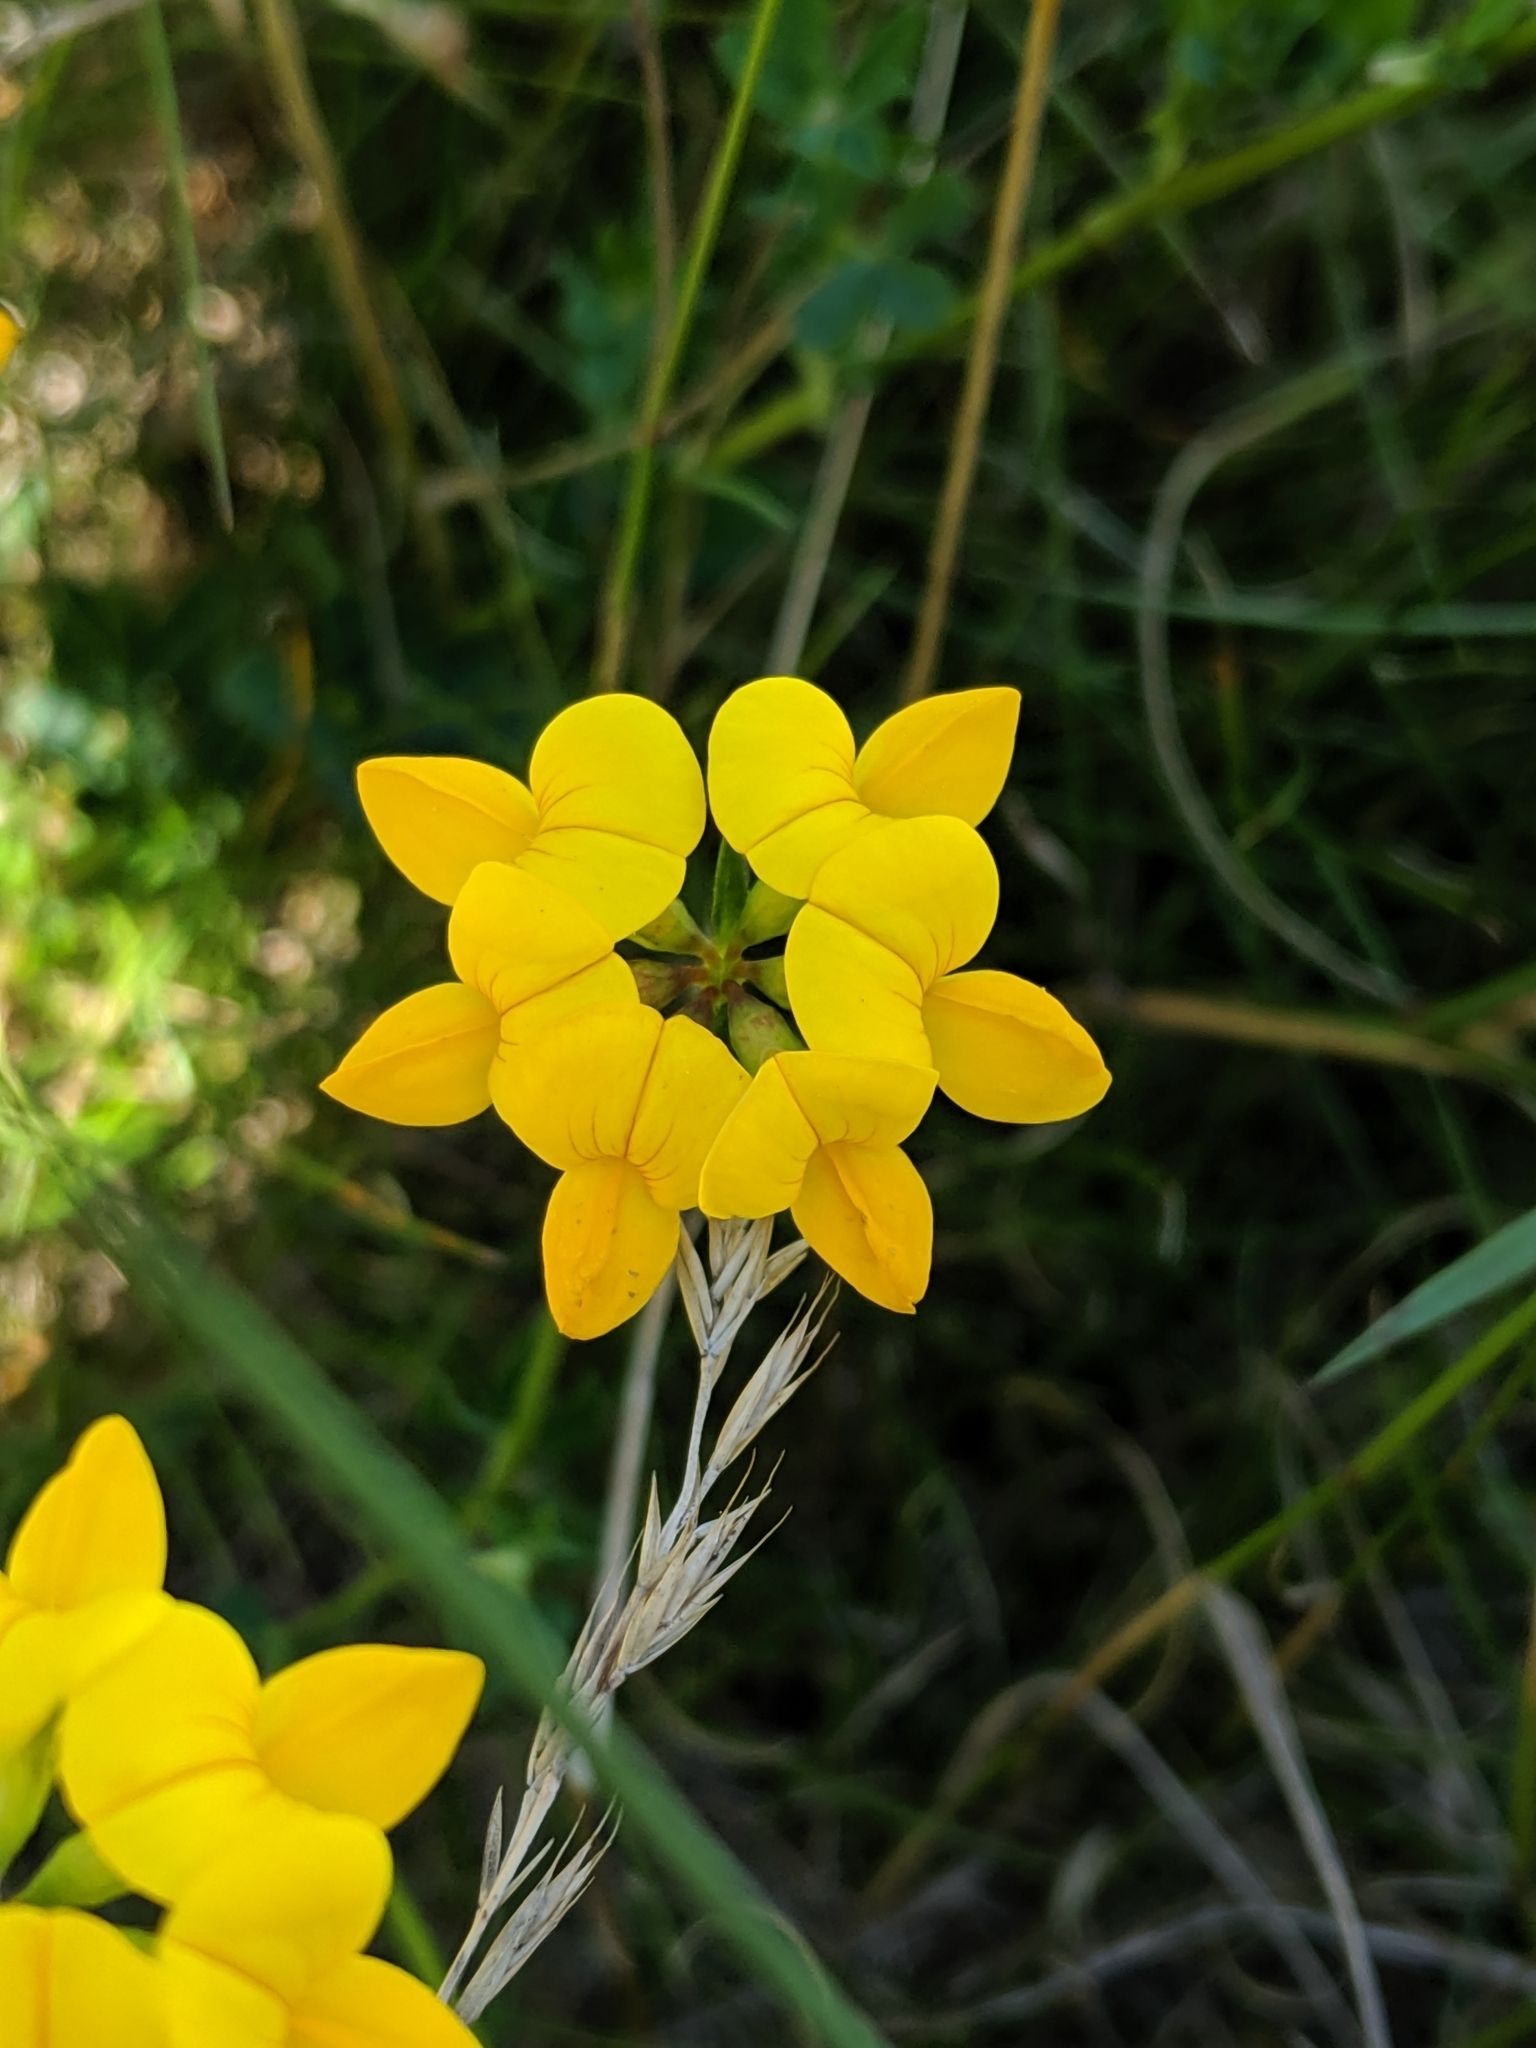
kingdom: Plantae
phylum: Tracheophyta
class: Magnoliopsida
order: Fabales
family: Fabaceae
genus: Lotus
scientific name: Lotus corniculatus
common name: Common bird's-foot-trefoil
